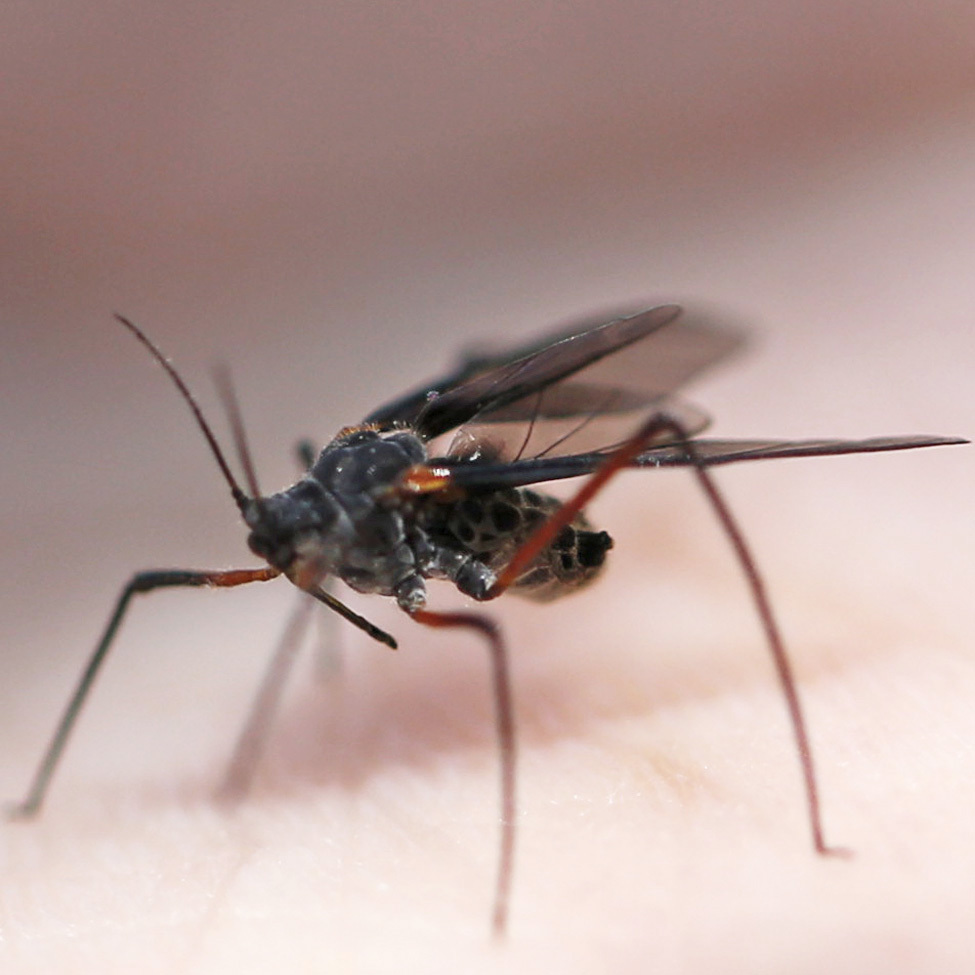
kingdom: Animalia
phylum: Arthropoda
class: Insecta
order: Hemiptera
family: Aphididae
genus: Longistigma
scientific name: Longistigma caryae
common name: Giant bark aphid
